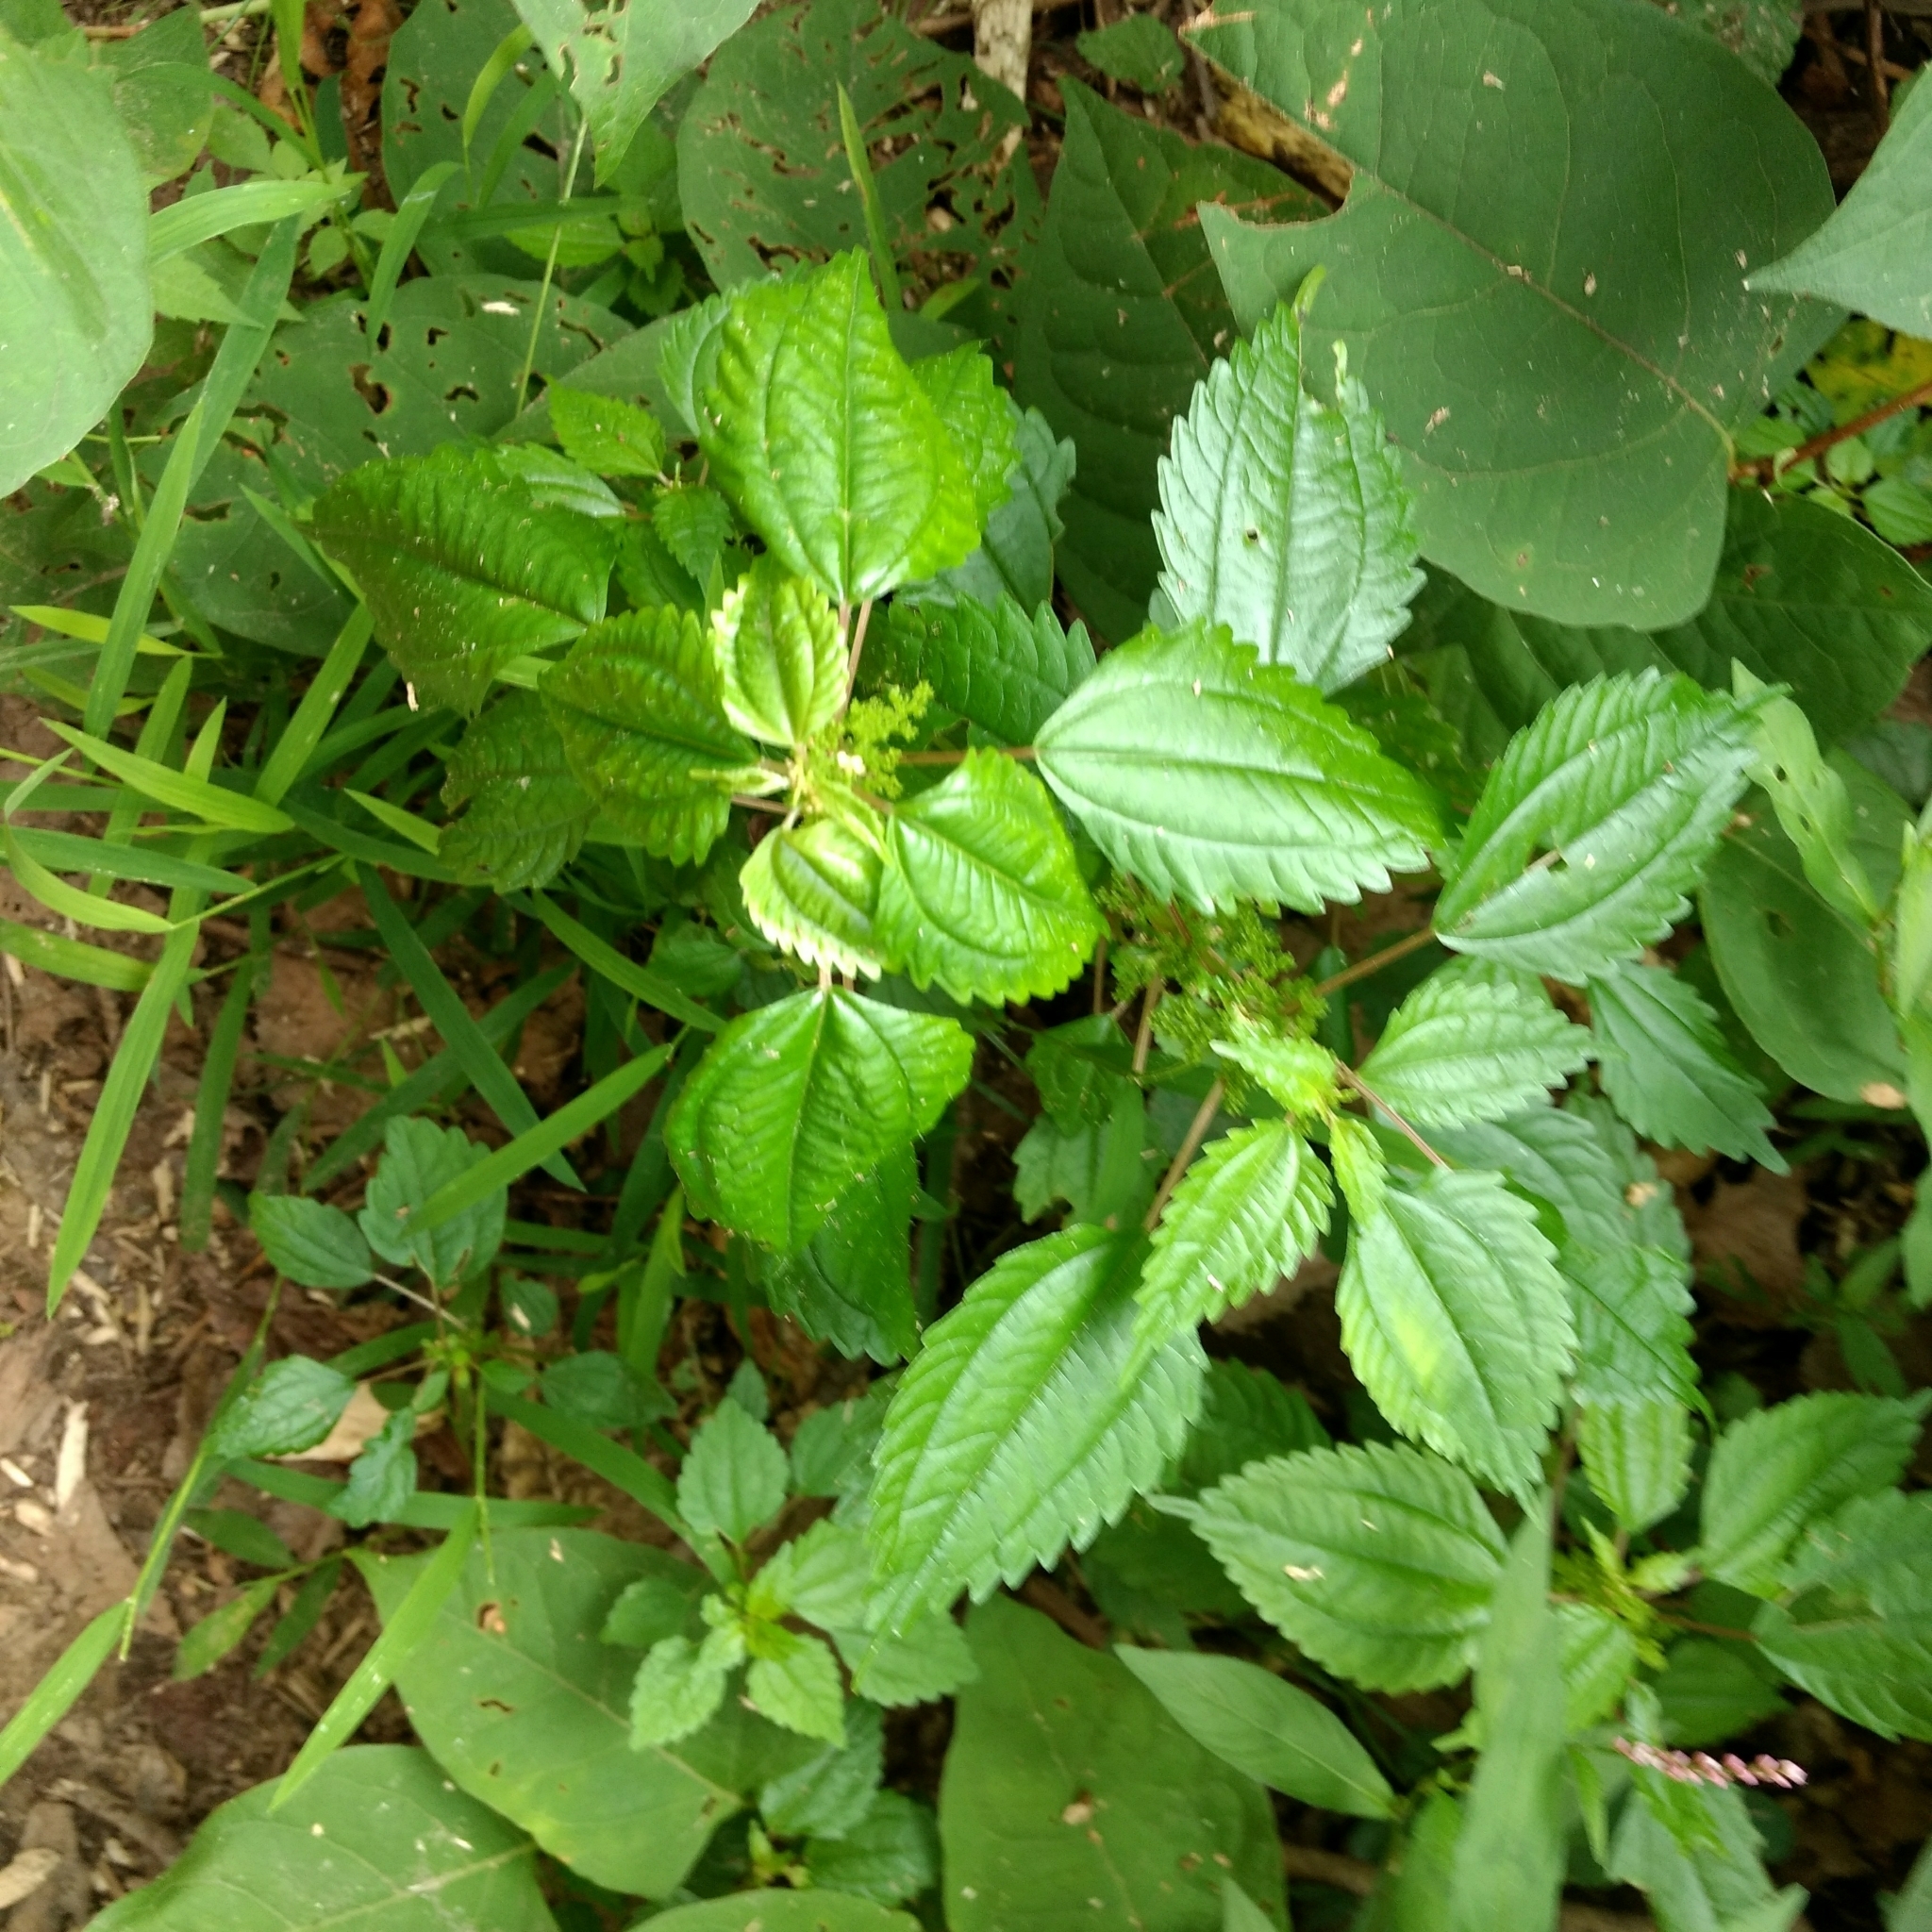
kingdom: Plantae
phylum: Tracheophyta
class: Magnoliopsida
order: Rosales
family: Urticaceae
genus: Pilea
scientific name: Pilea pumila
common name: Clearweed
